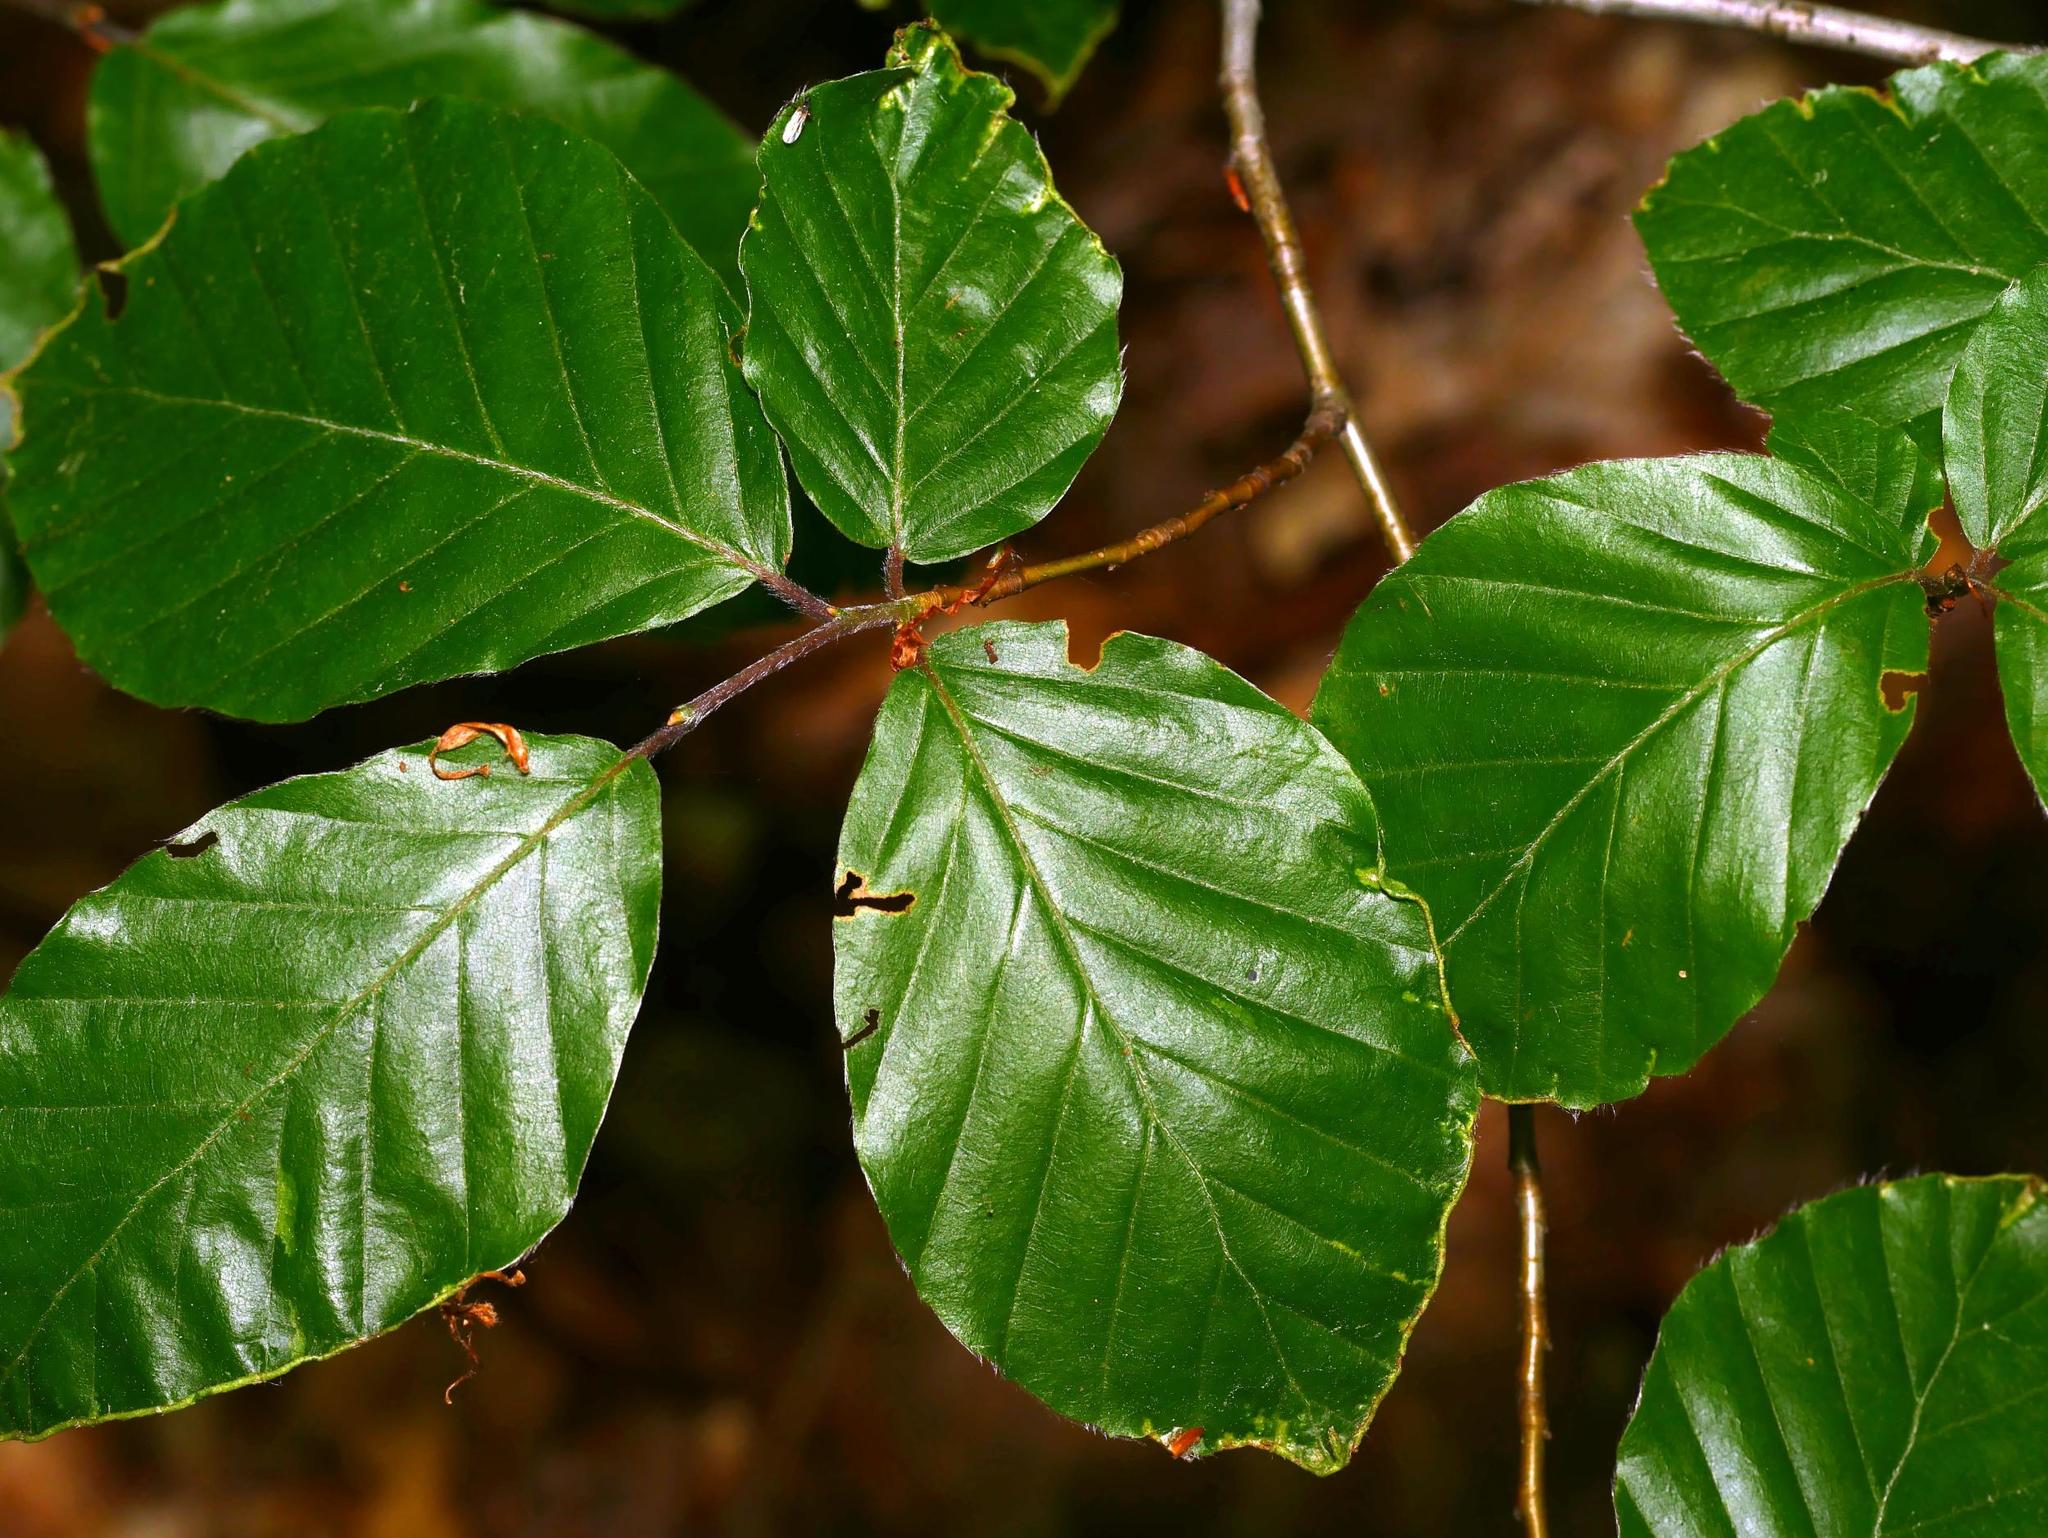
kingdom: Plantae
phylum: Tracheophyta
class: Magnoliopsida
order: Fagales
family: Fagaceae
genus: Fagus
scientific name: Fagus sylvatica
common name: Beech
